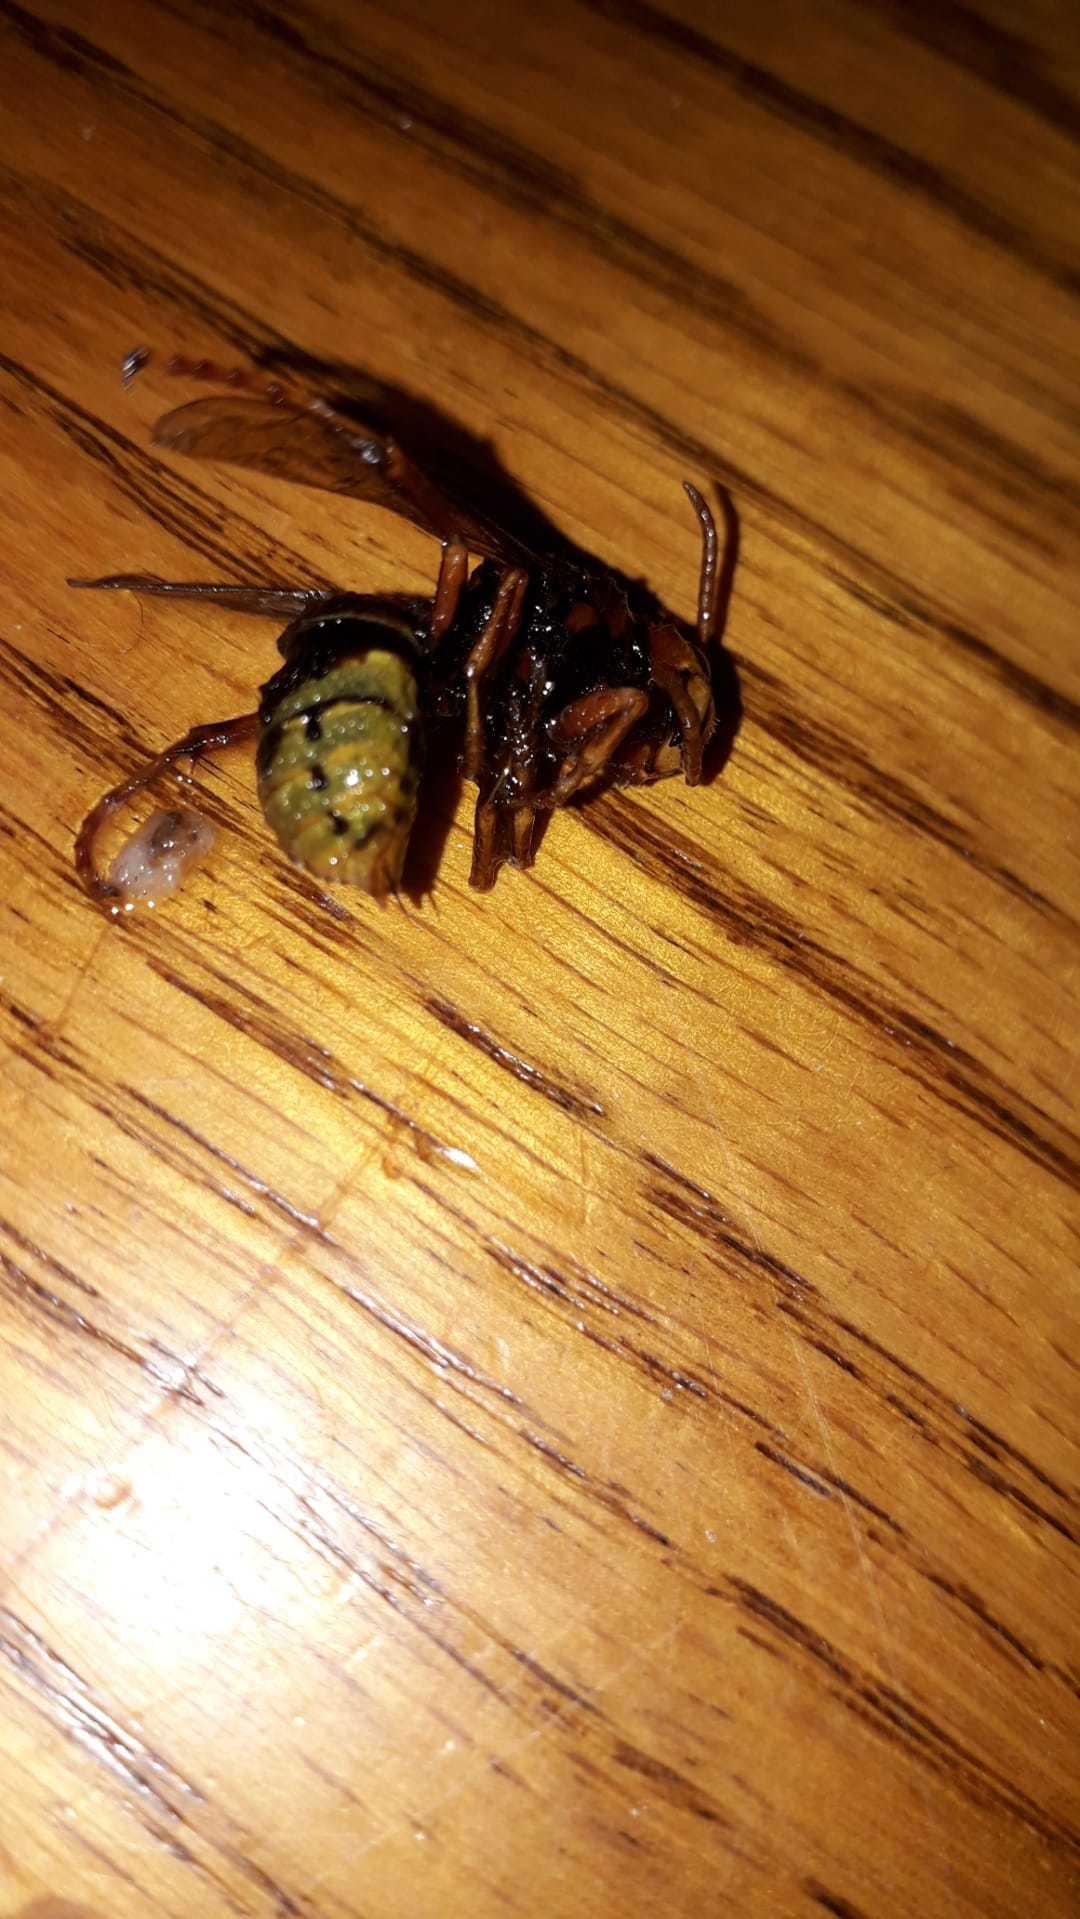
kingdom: Animalia
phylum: Arthropoda
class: Insecta
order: Hymenoptera
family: Vespidae
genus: Vespa
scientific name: Vespa crabro
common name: Hornet
